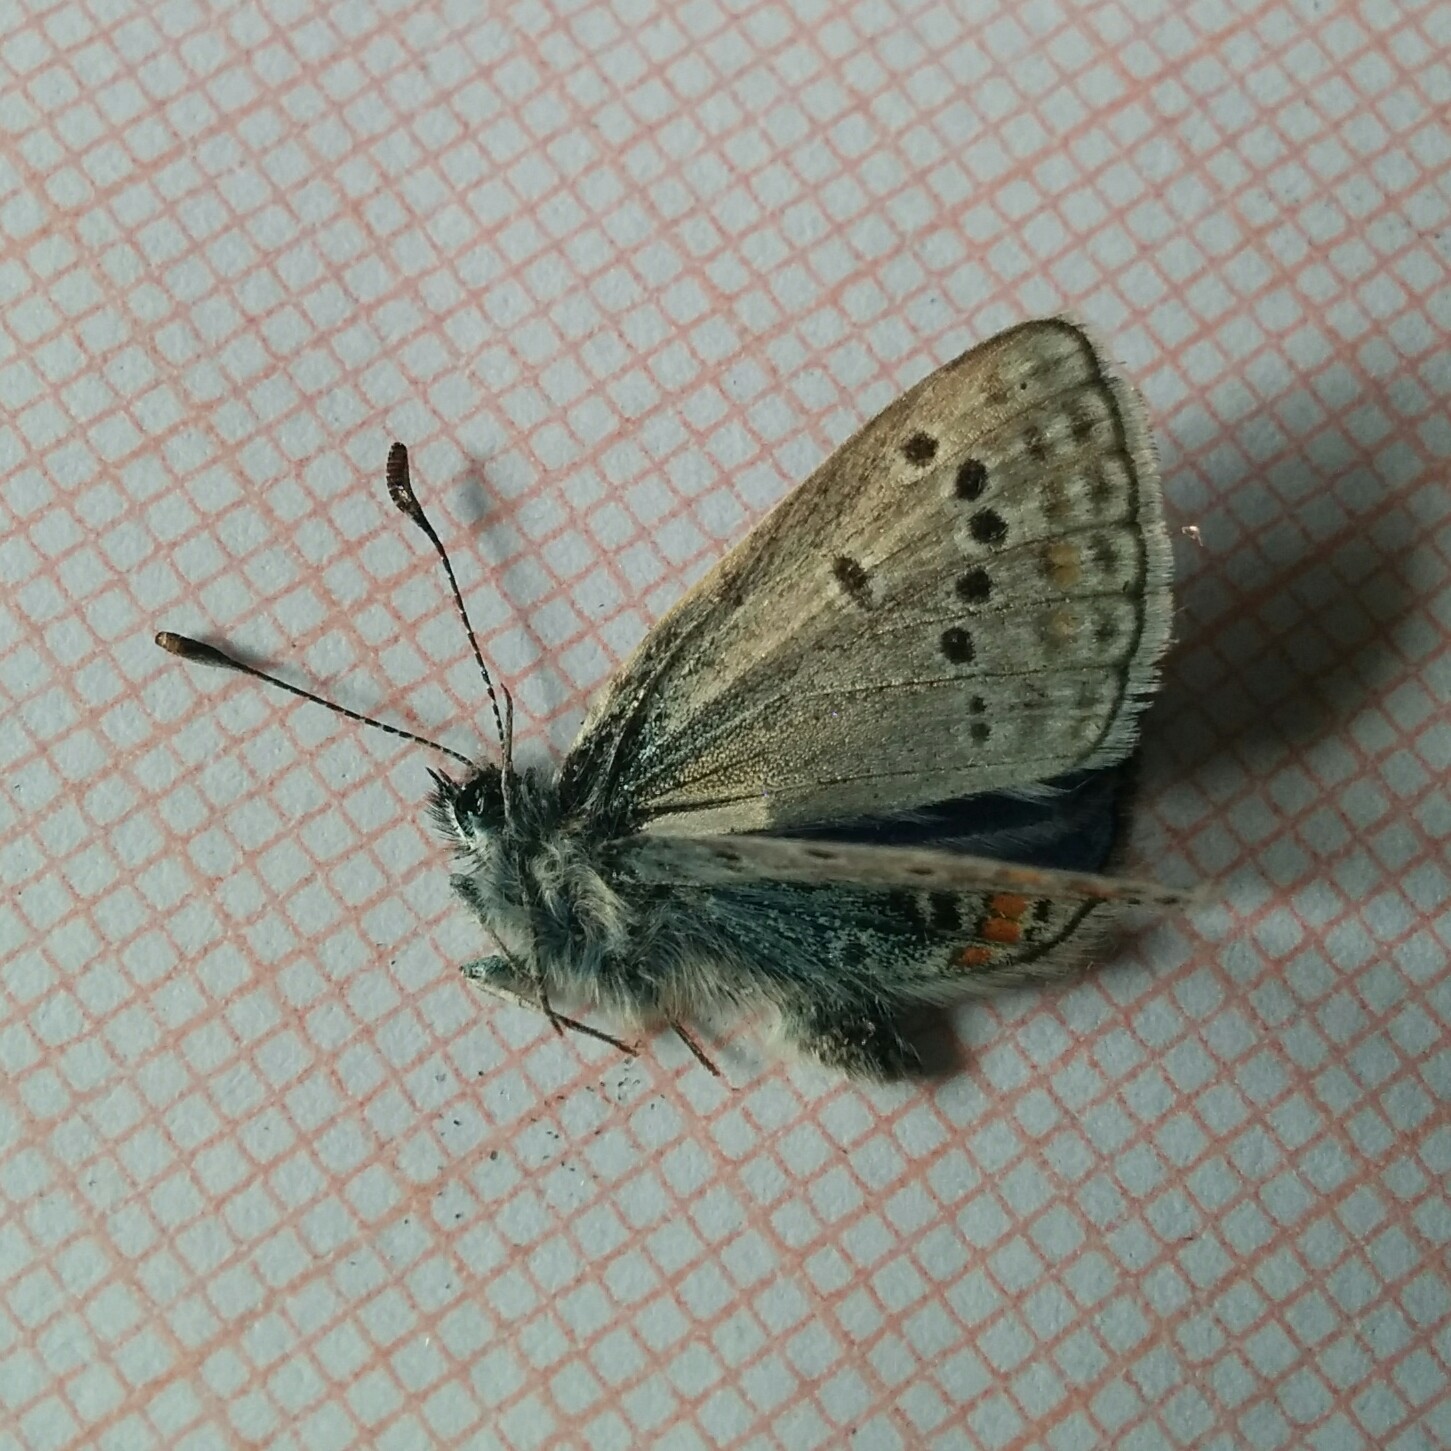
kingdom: Animalia
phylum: Arthropoda
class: Insecta
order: Lepidoptera
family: Lycaenidae
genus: Polyommatus
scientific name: Polyommatus thersites
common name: Chapman's blue
